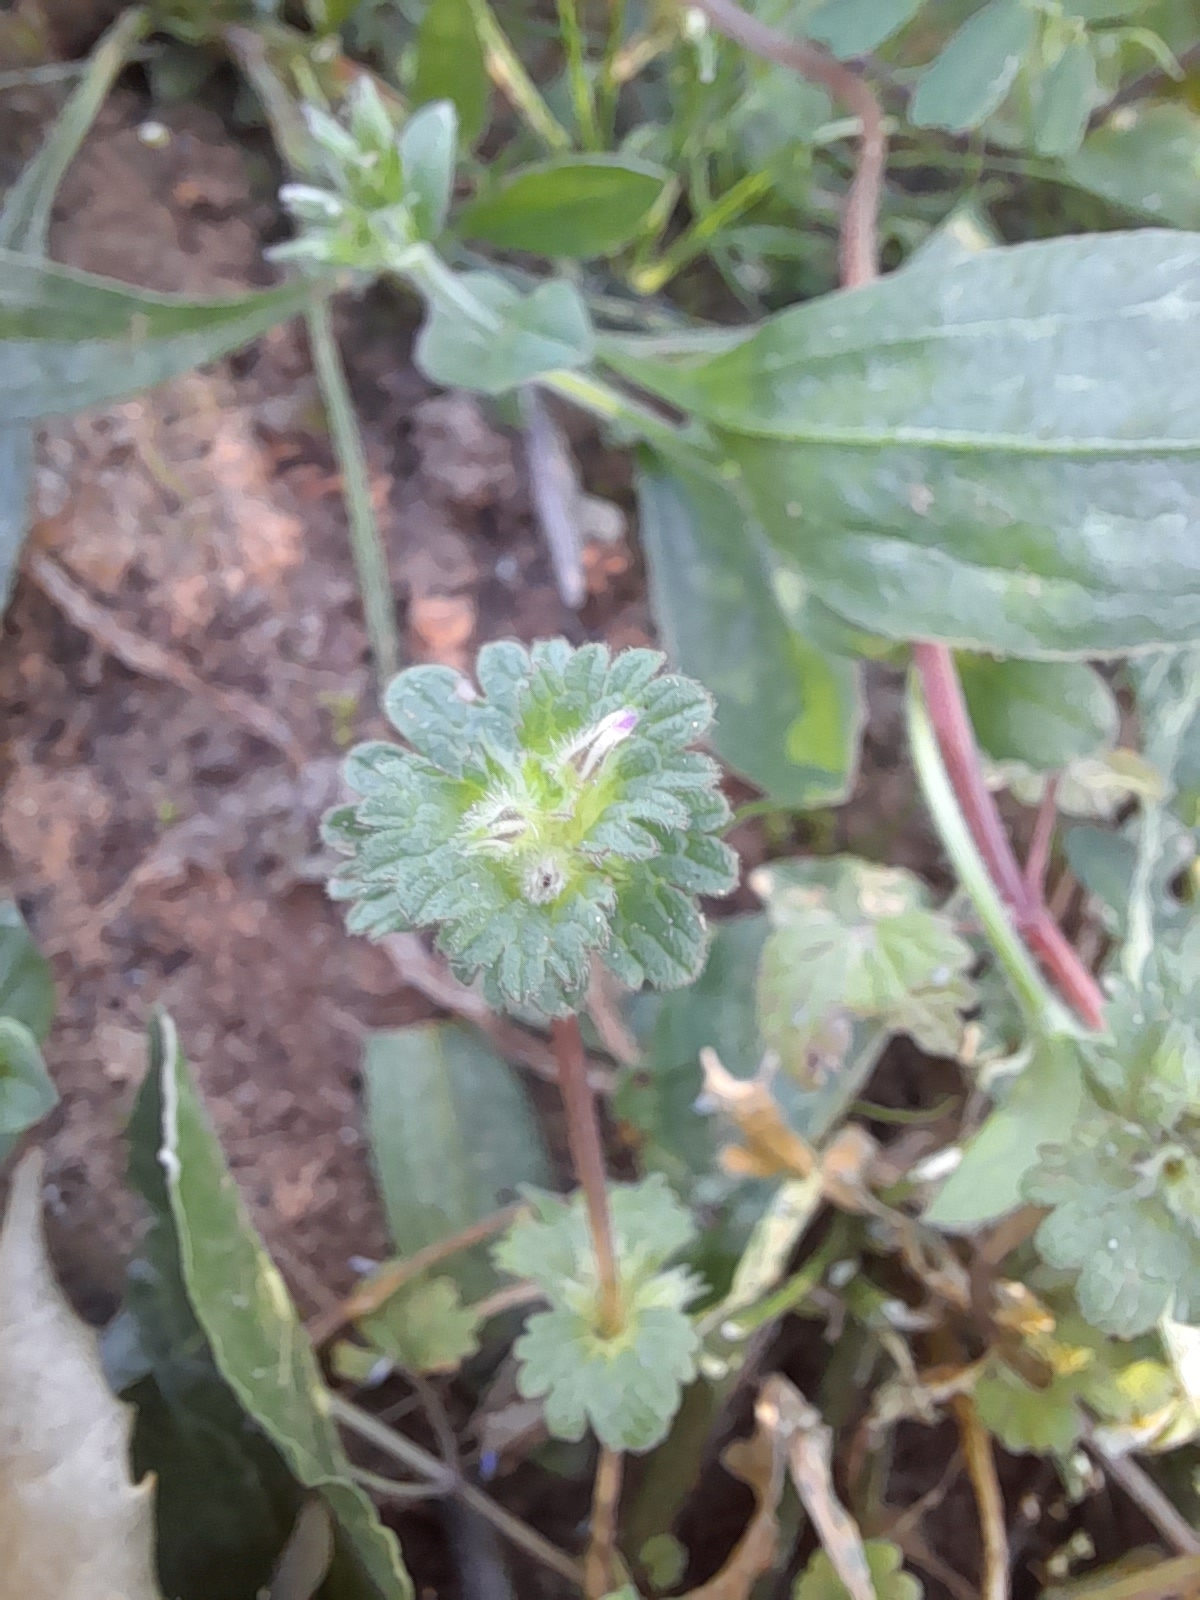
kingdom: Plantae
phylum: Tracheophyta
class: Magnoliopsida
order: Lamiales
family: Lamiaceae
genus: Lamium
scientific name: Lamium amplexicaule
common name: Henbit dead-nettle
